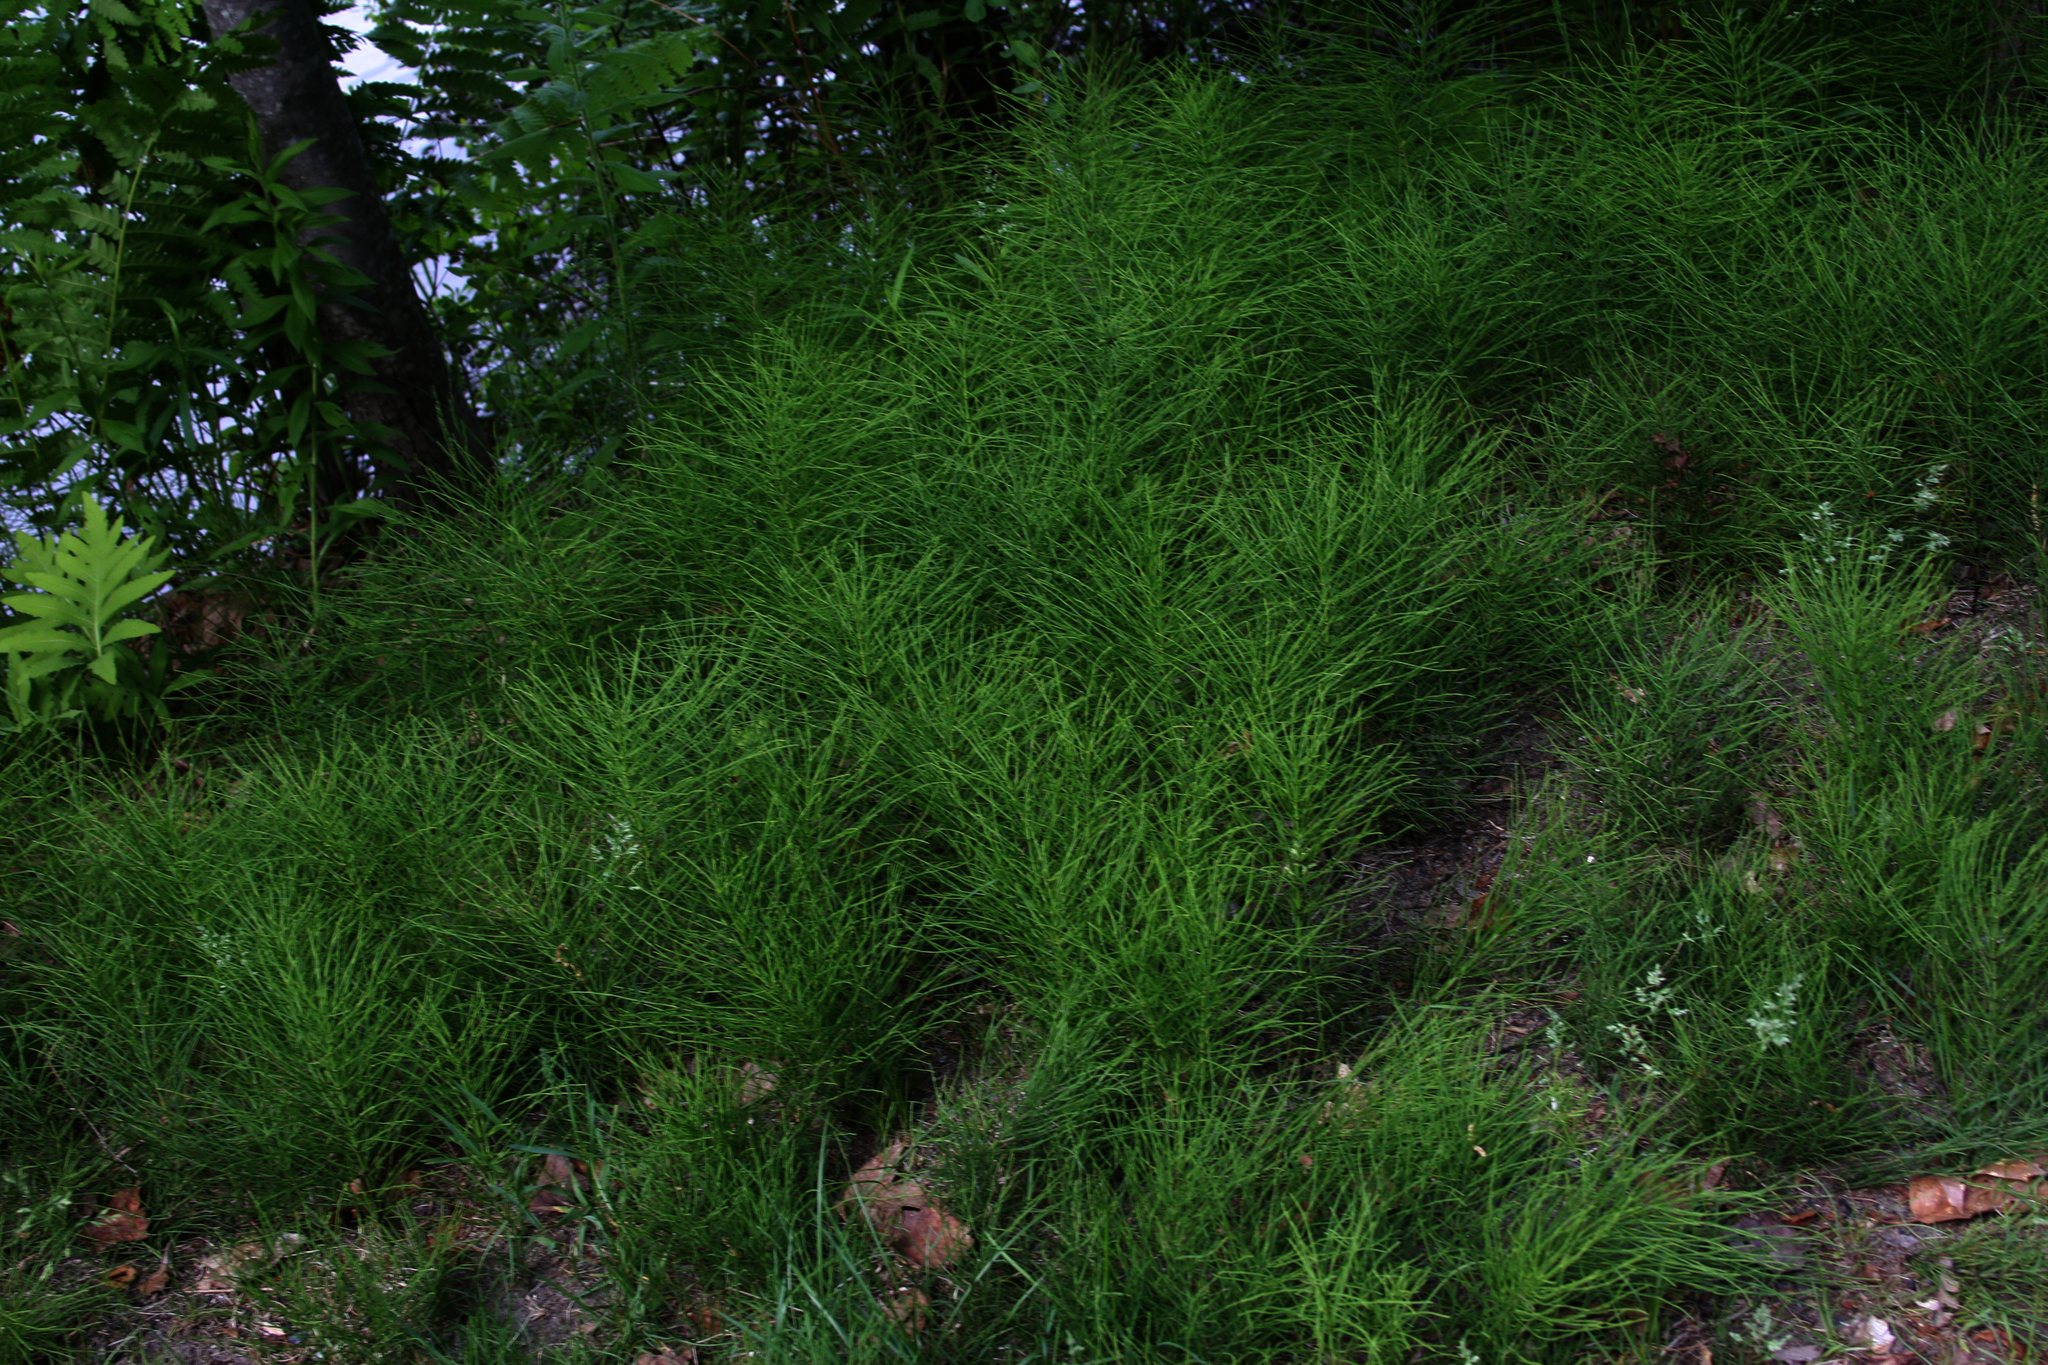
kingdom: Plantae
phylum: Tracheophyta
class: Polypodiopsida
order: Polypodiales
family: Onocleaceae
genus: Onoclea
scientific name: Onoclea sensibilis
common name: Sensitive fern
